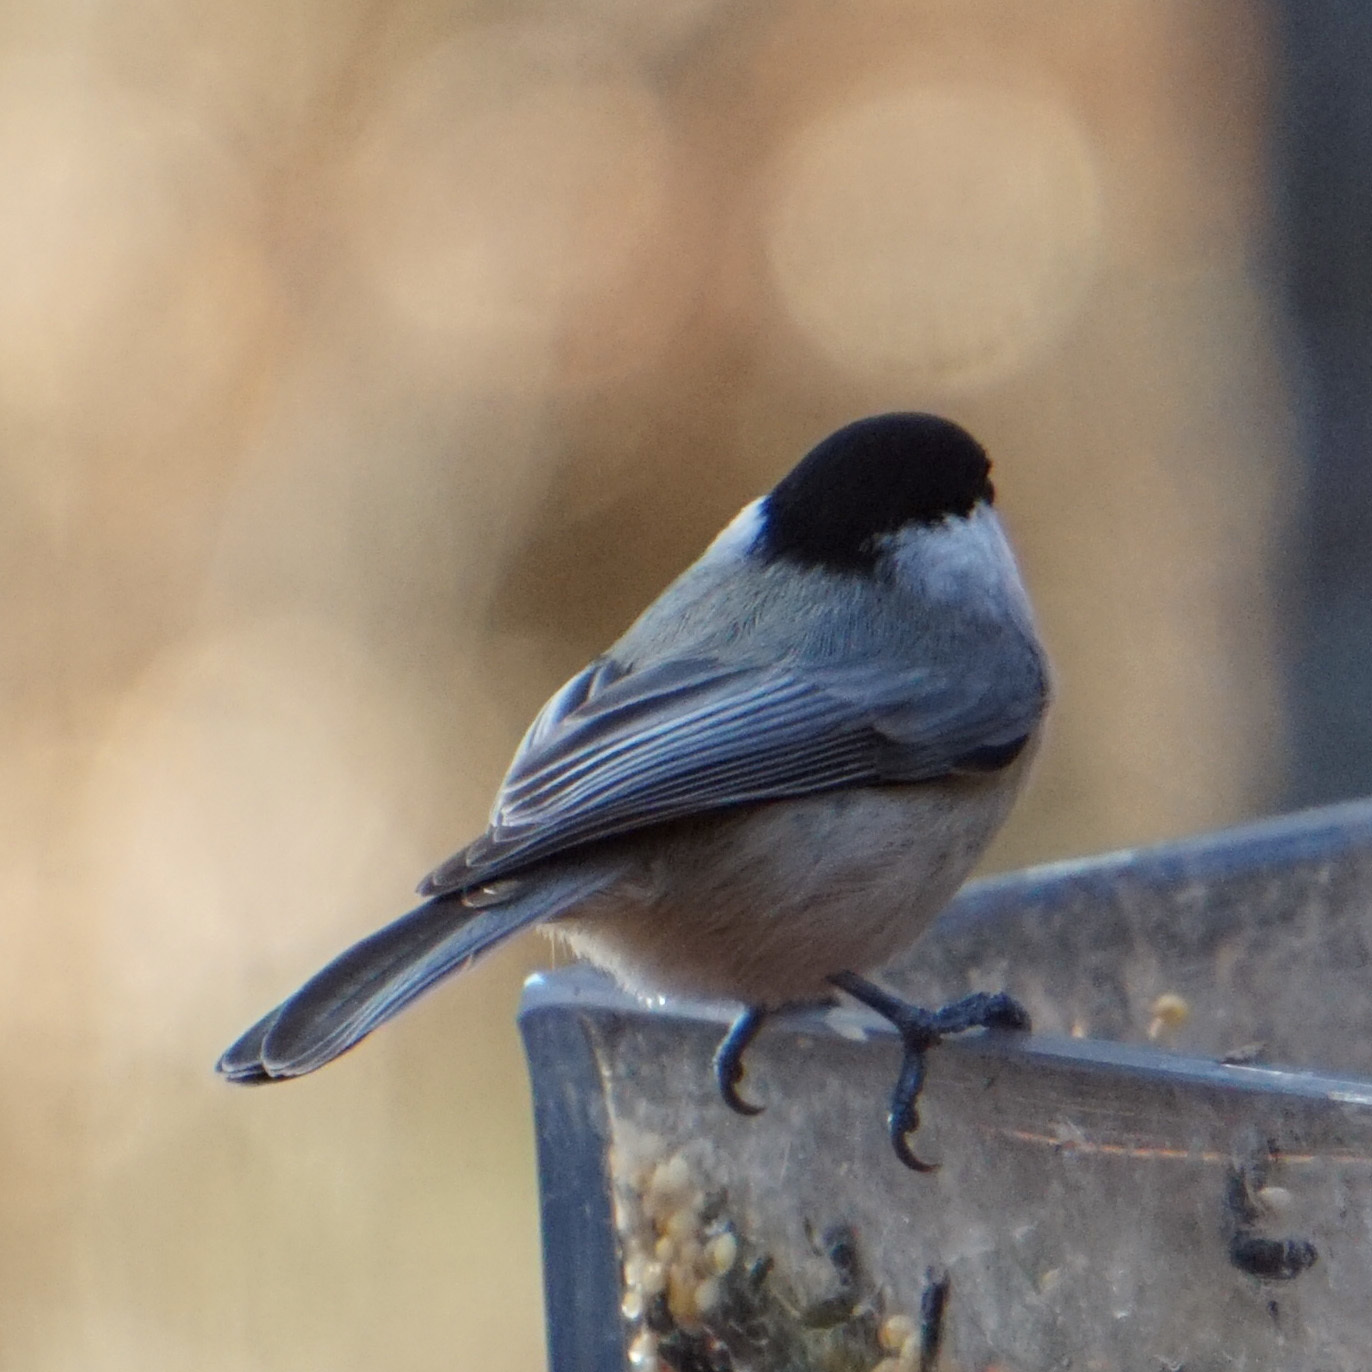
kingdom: Animalia
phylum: Chordata
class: Aves
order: Passeriformes
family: Paridae
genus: Poecile
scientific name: Poecile carolinensis
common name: Carolina chickadee
